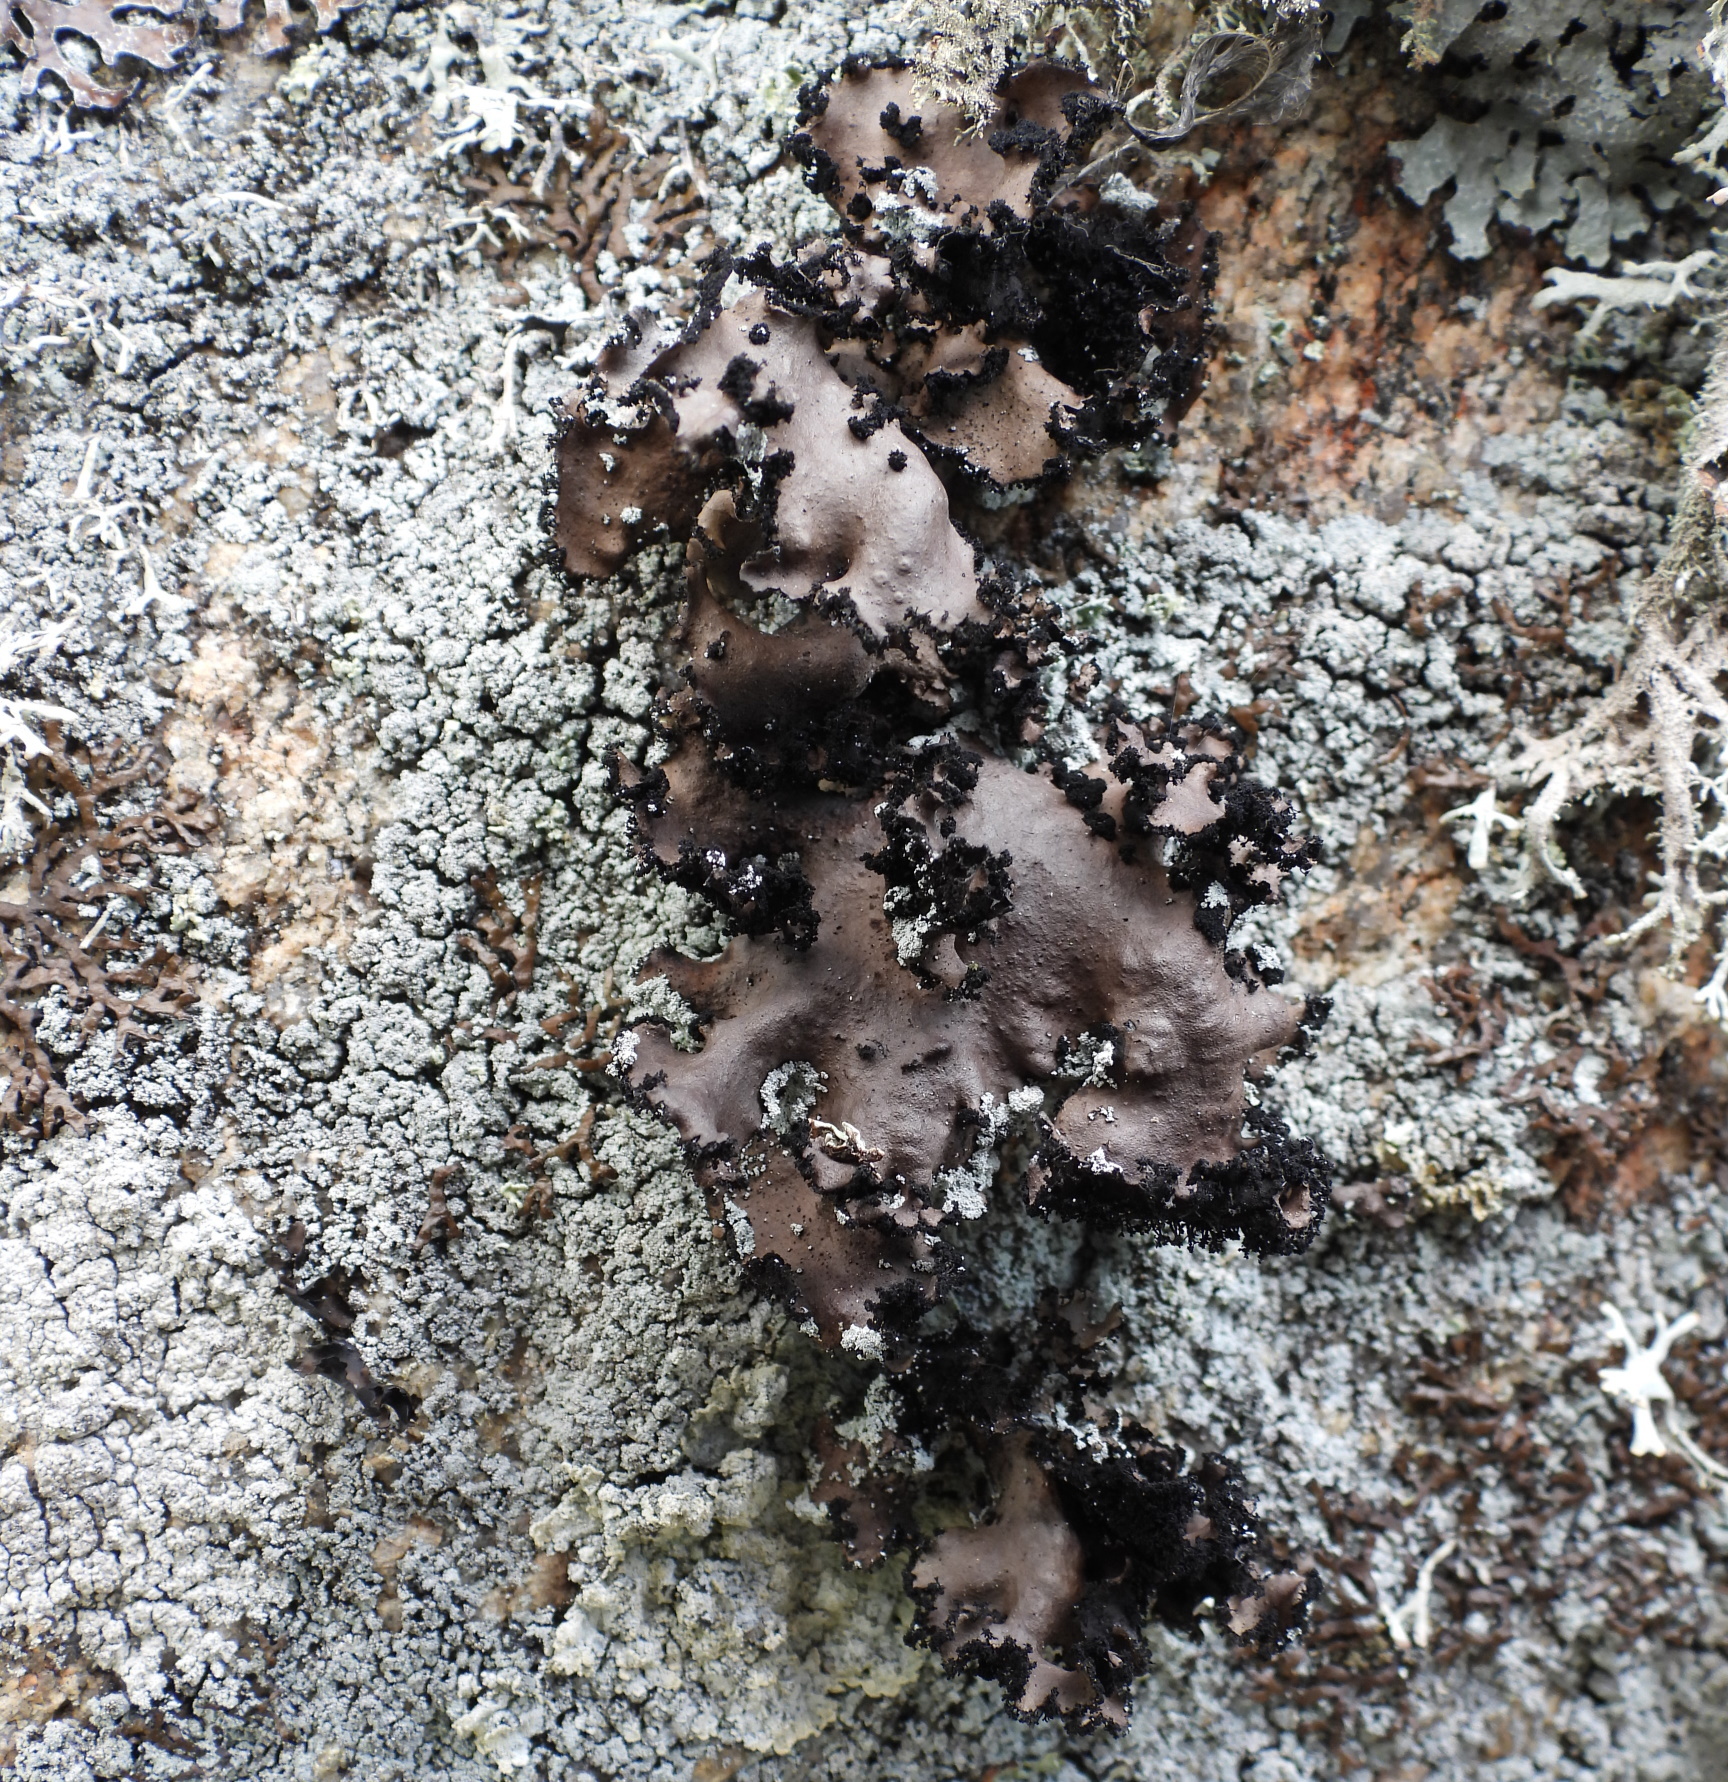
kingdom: Fungi
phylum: Ascomycota
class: Lecanoromycetes
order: Umbilicariales
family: Umbilicariaceae
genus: Umbilicaria
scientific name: Umbilicaria polyrrhiza
